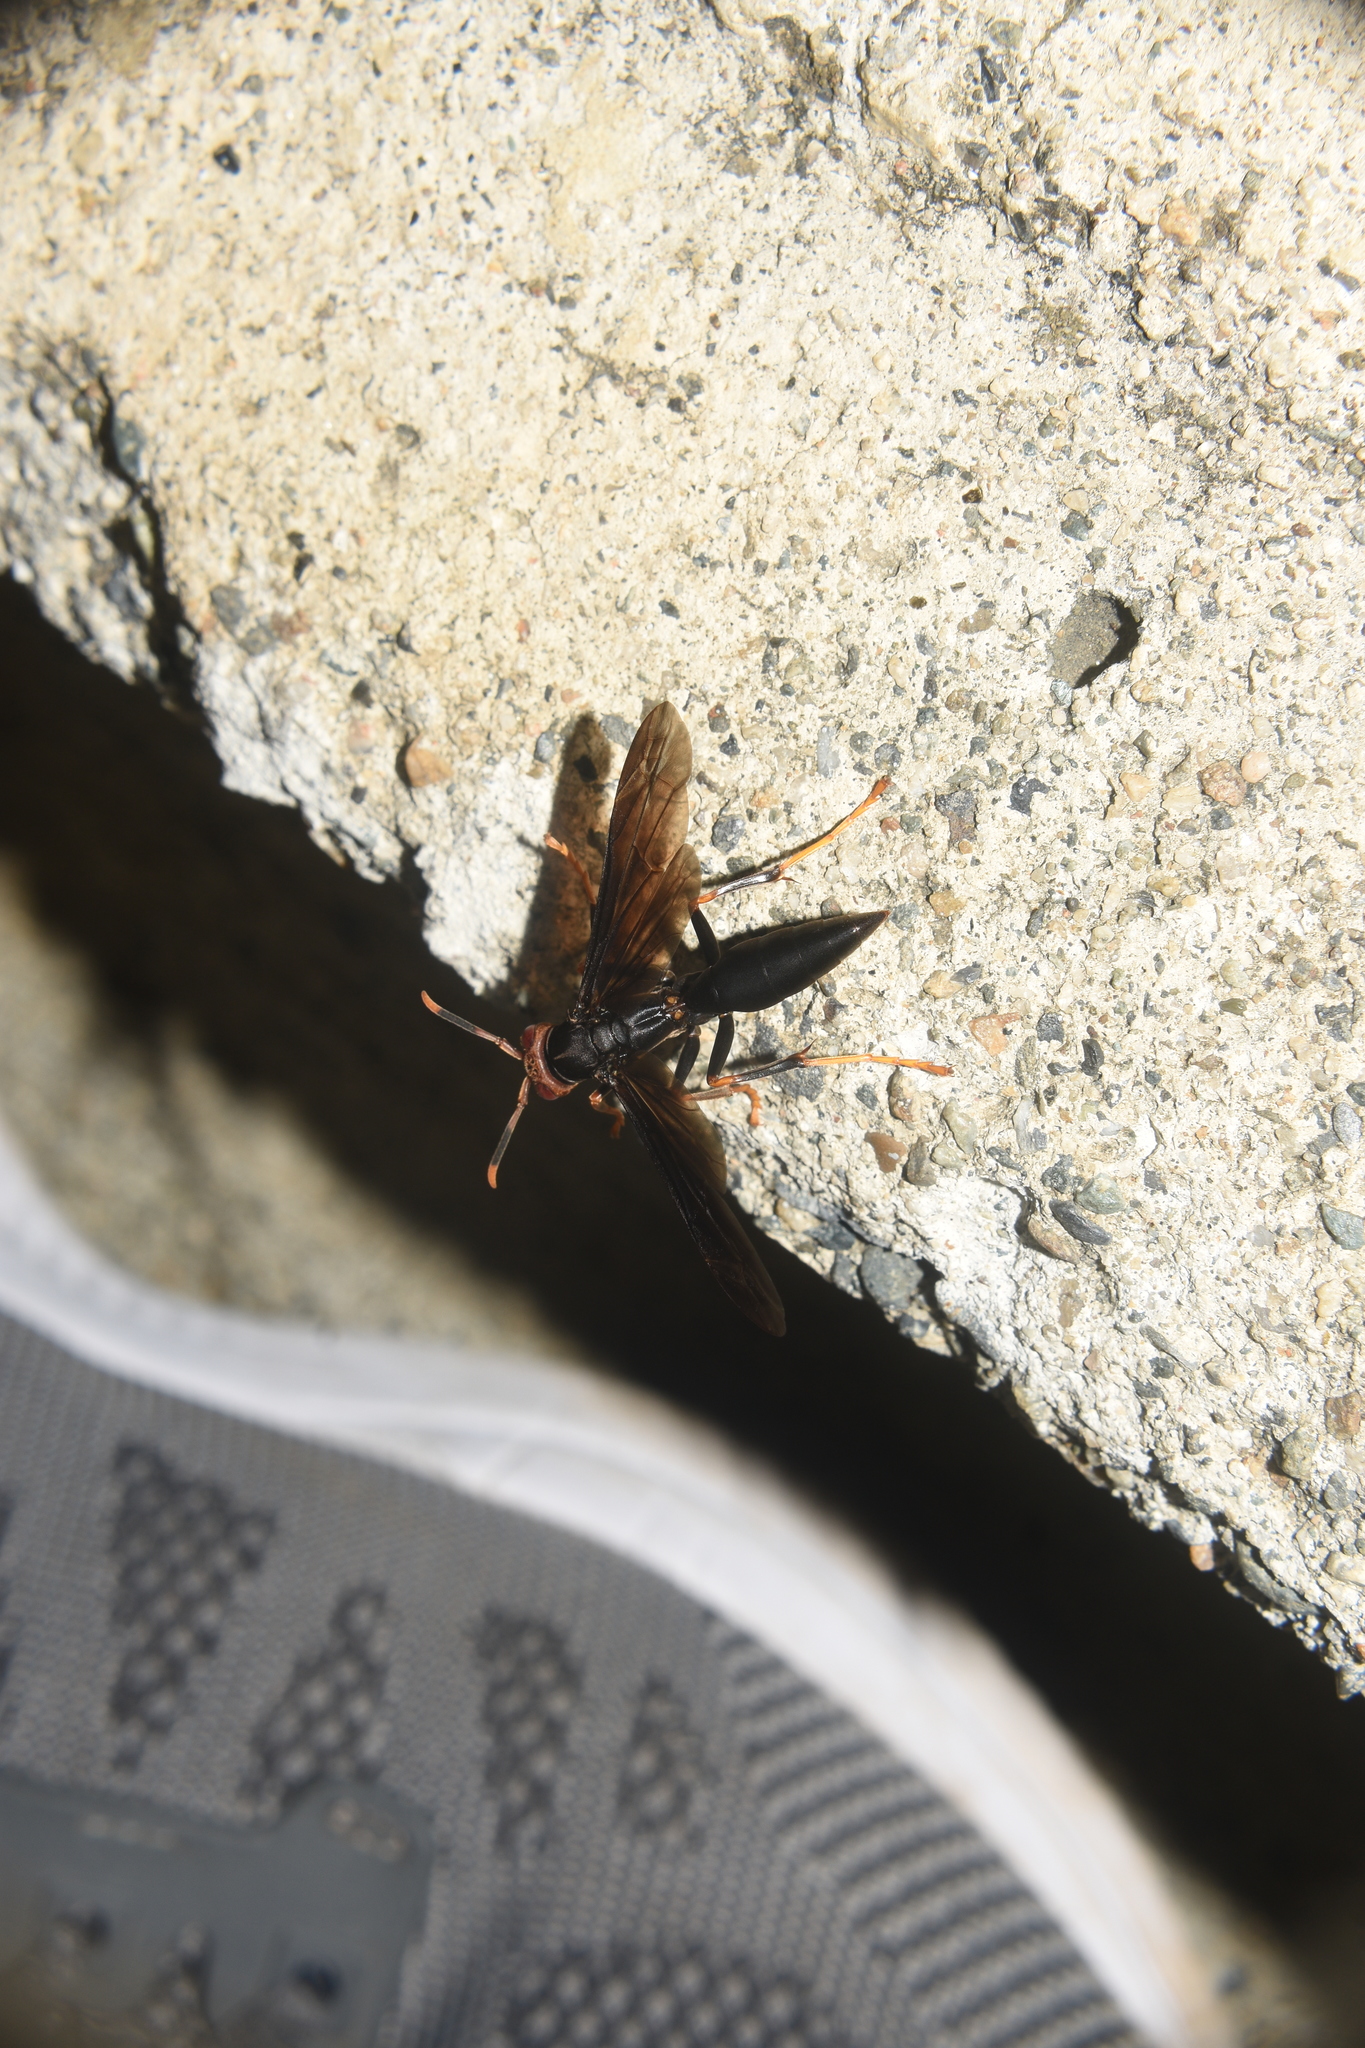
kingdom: Animalia
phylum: Arthropoda
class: Insecta
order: Hymenoptera
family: Eumenidae
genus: Polistes
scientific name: Polistes erythrocephalus
